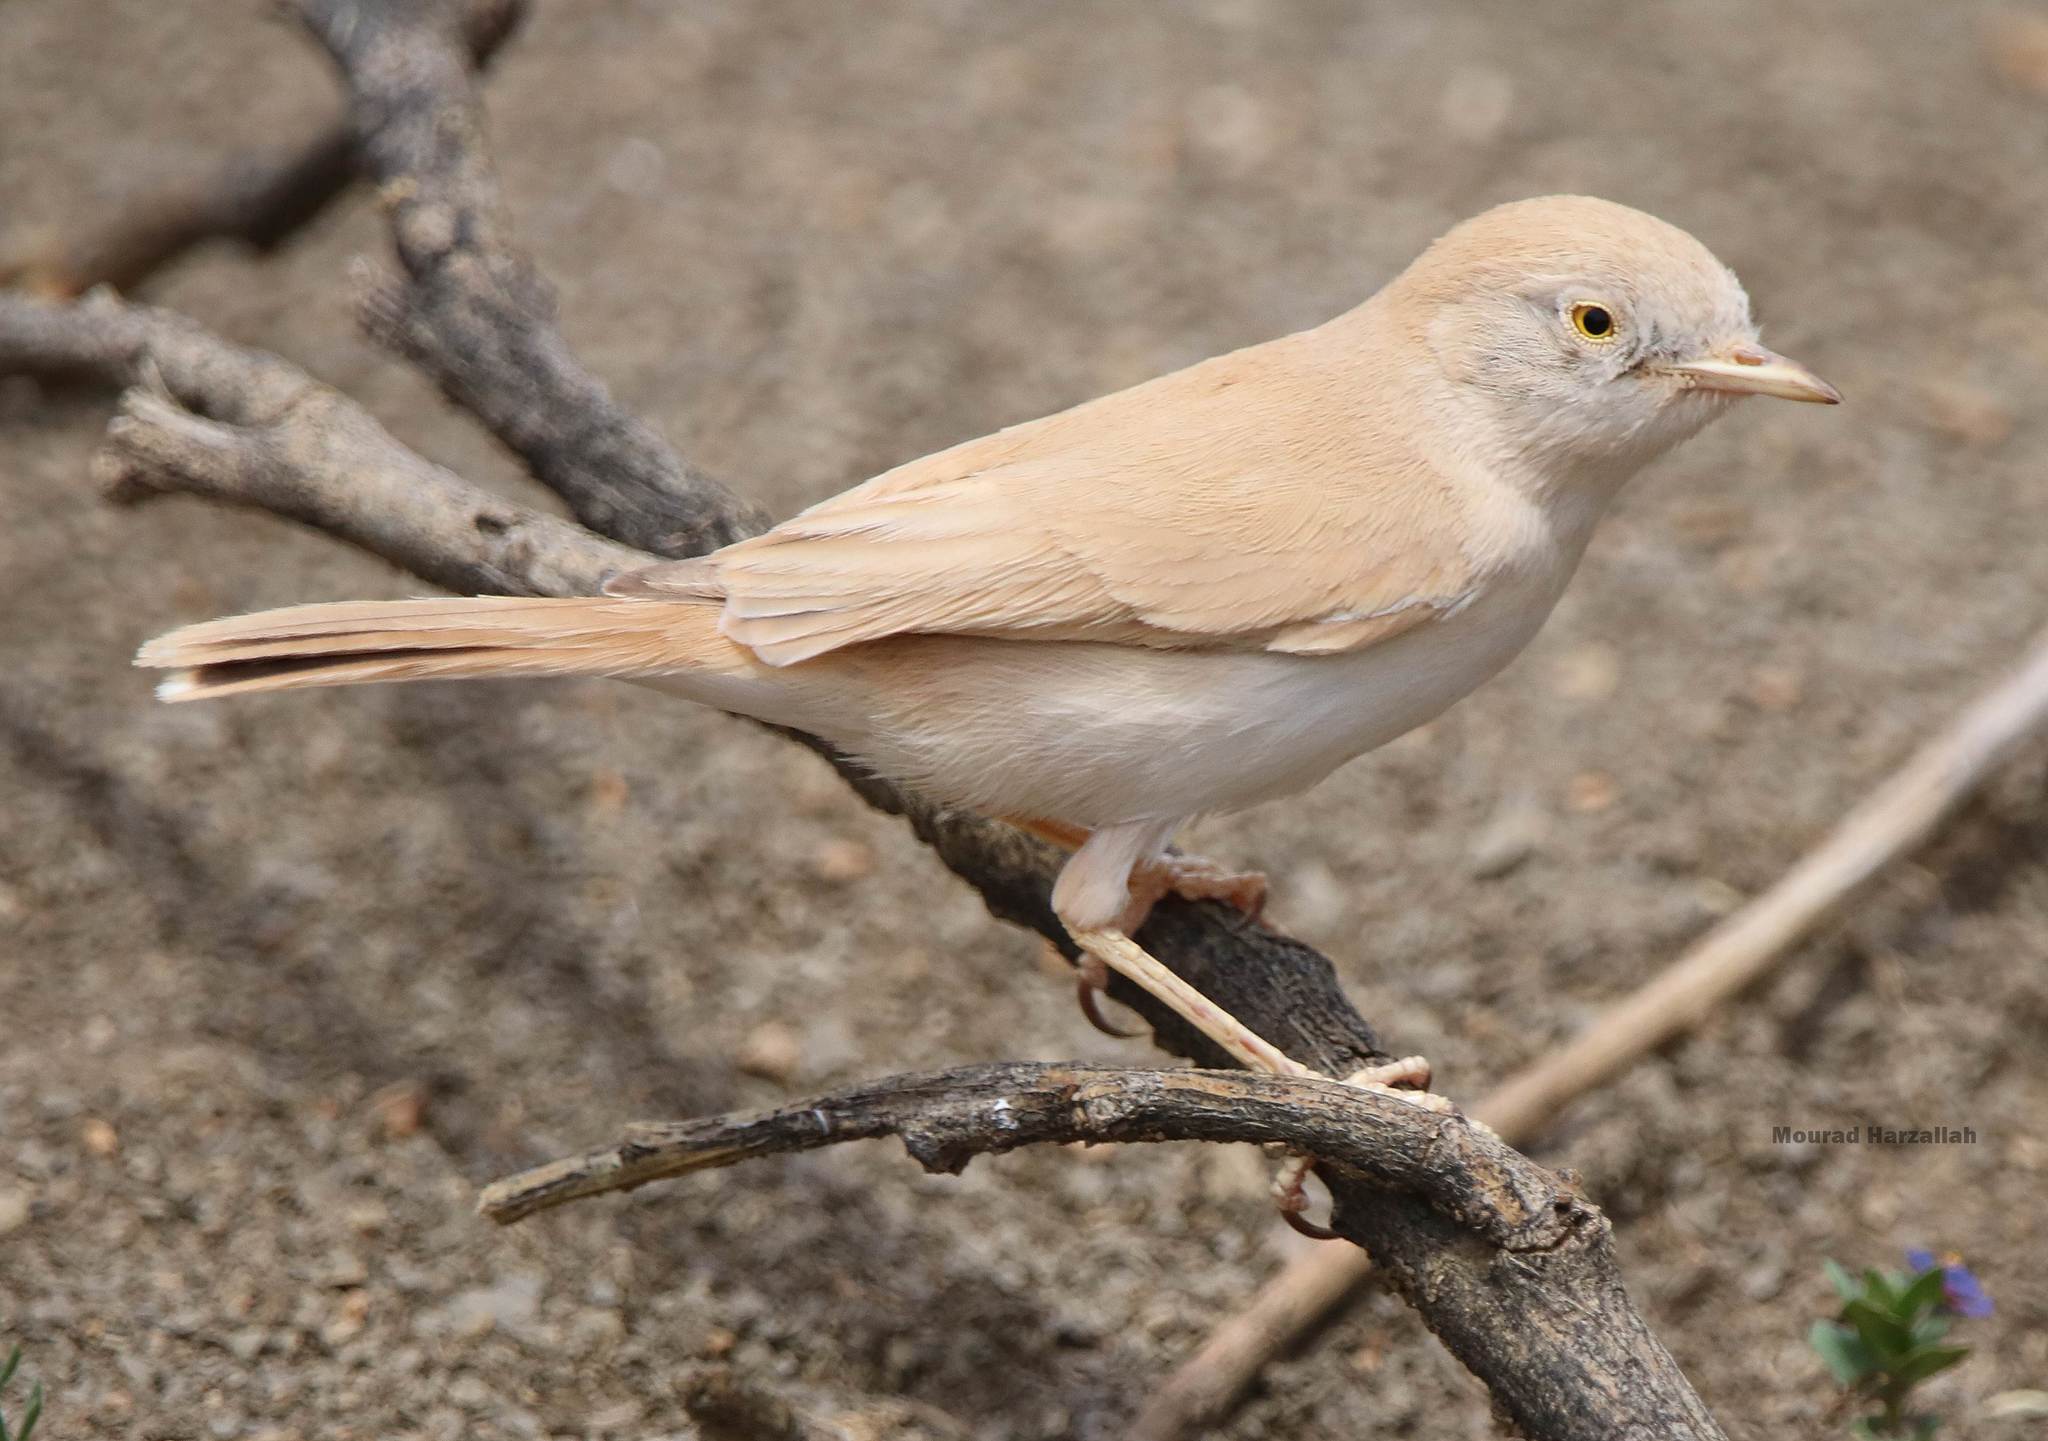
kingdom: Animalia
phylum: Chordata
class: Aves
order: Passeriformes
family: Sylviidae
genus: Sylvia
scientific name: Sylvia deserti
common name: African desert warbler
